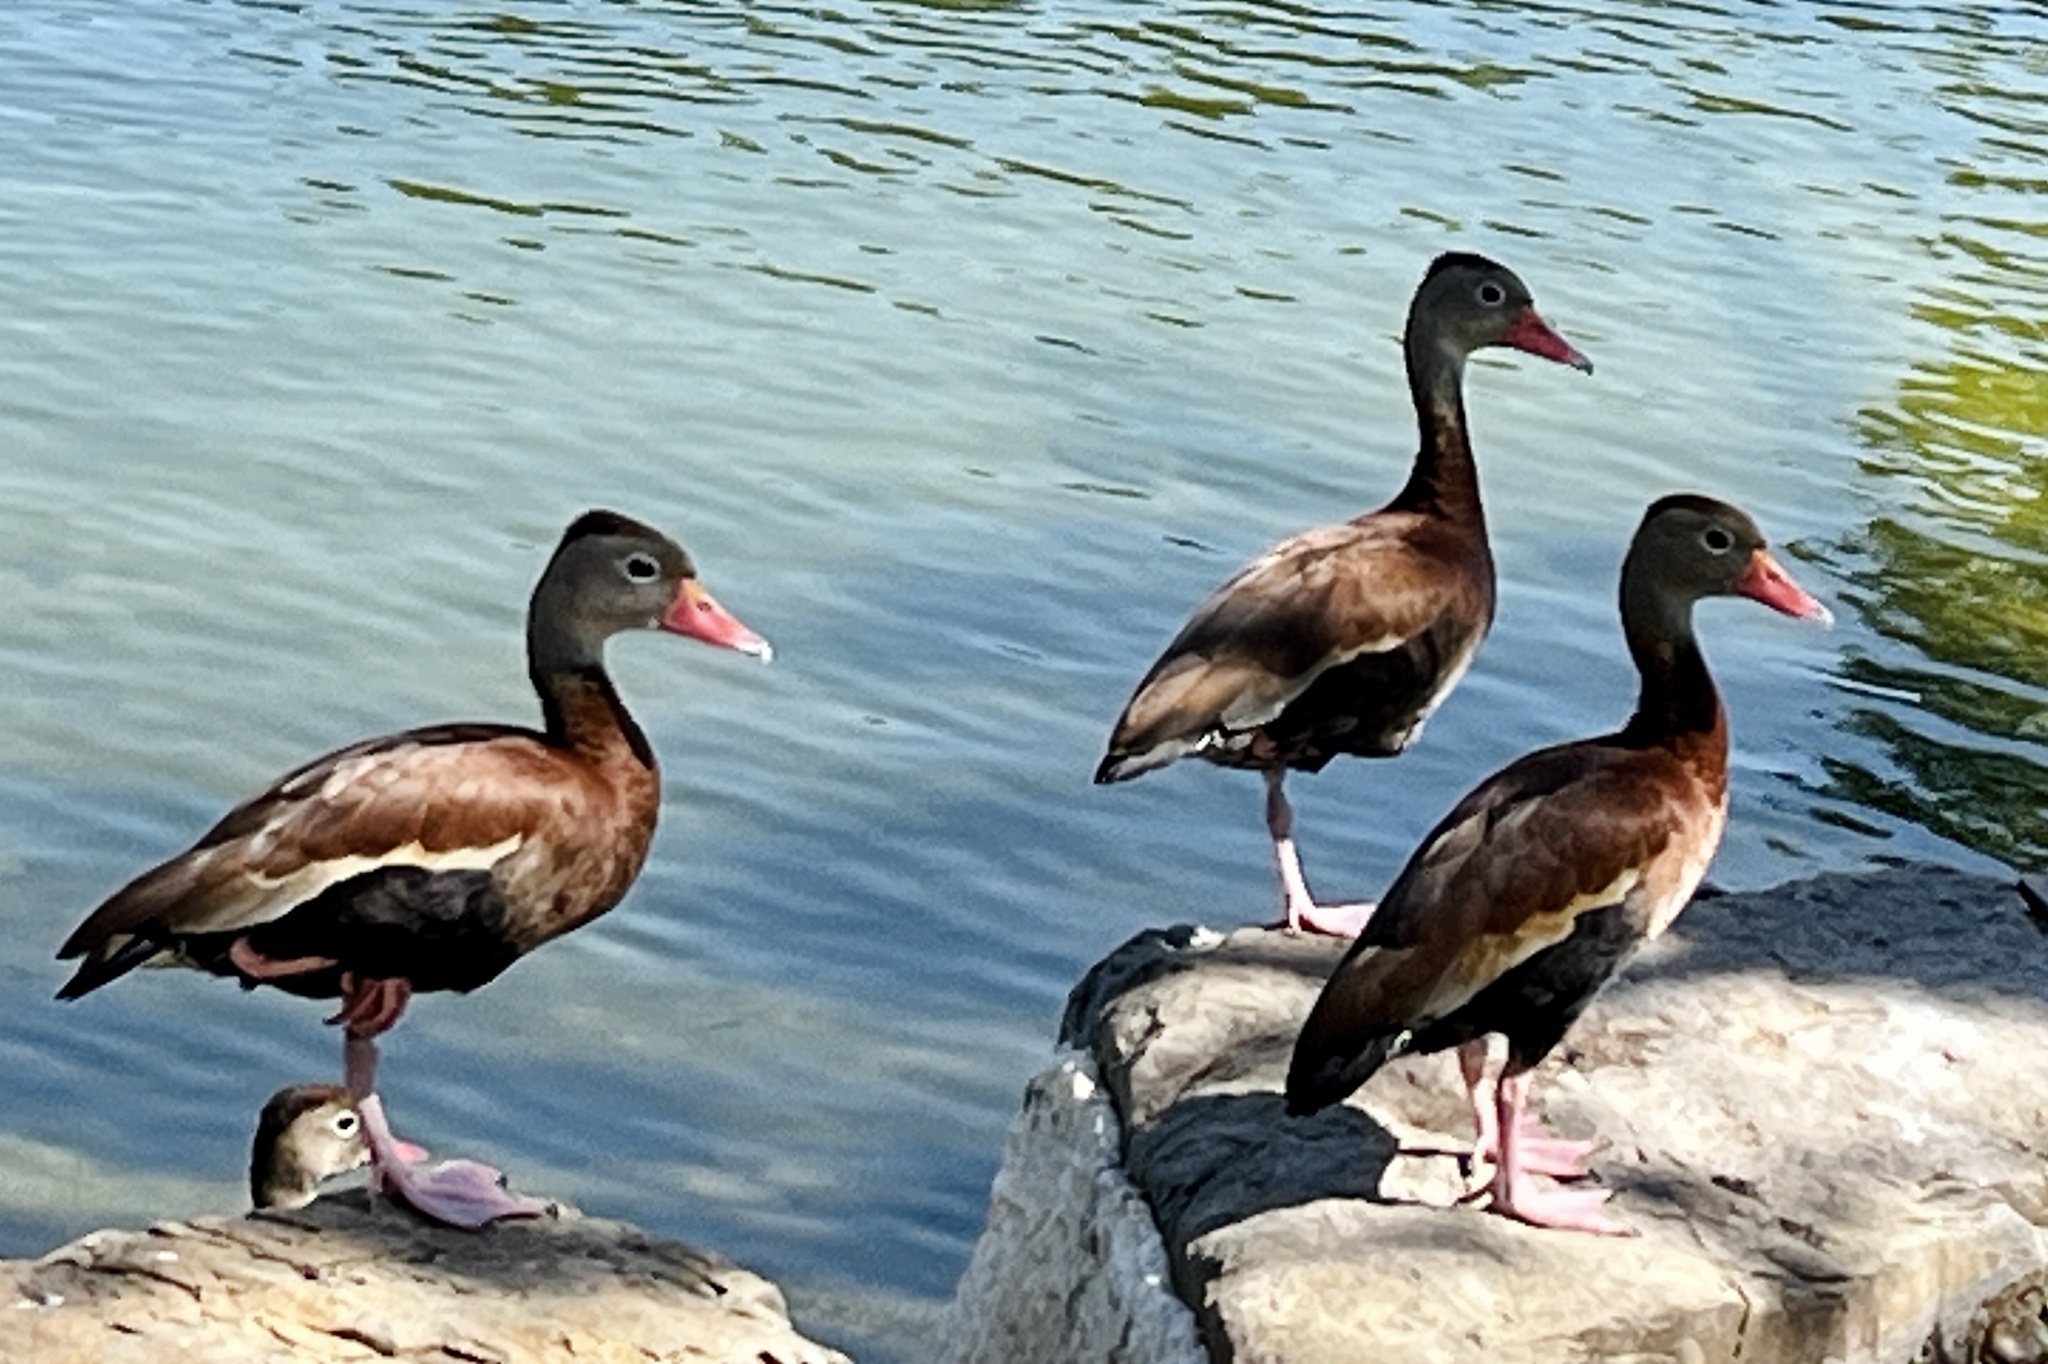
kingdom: Animalia
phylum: Chordata
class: Aves
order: Anseriformes
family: Anatidae
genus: Dendrocygna
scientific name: Dendrocygna autumnalis
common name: Black-bellied whistling duck
